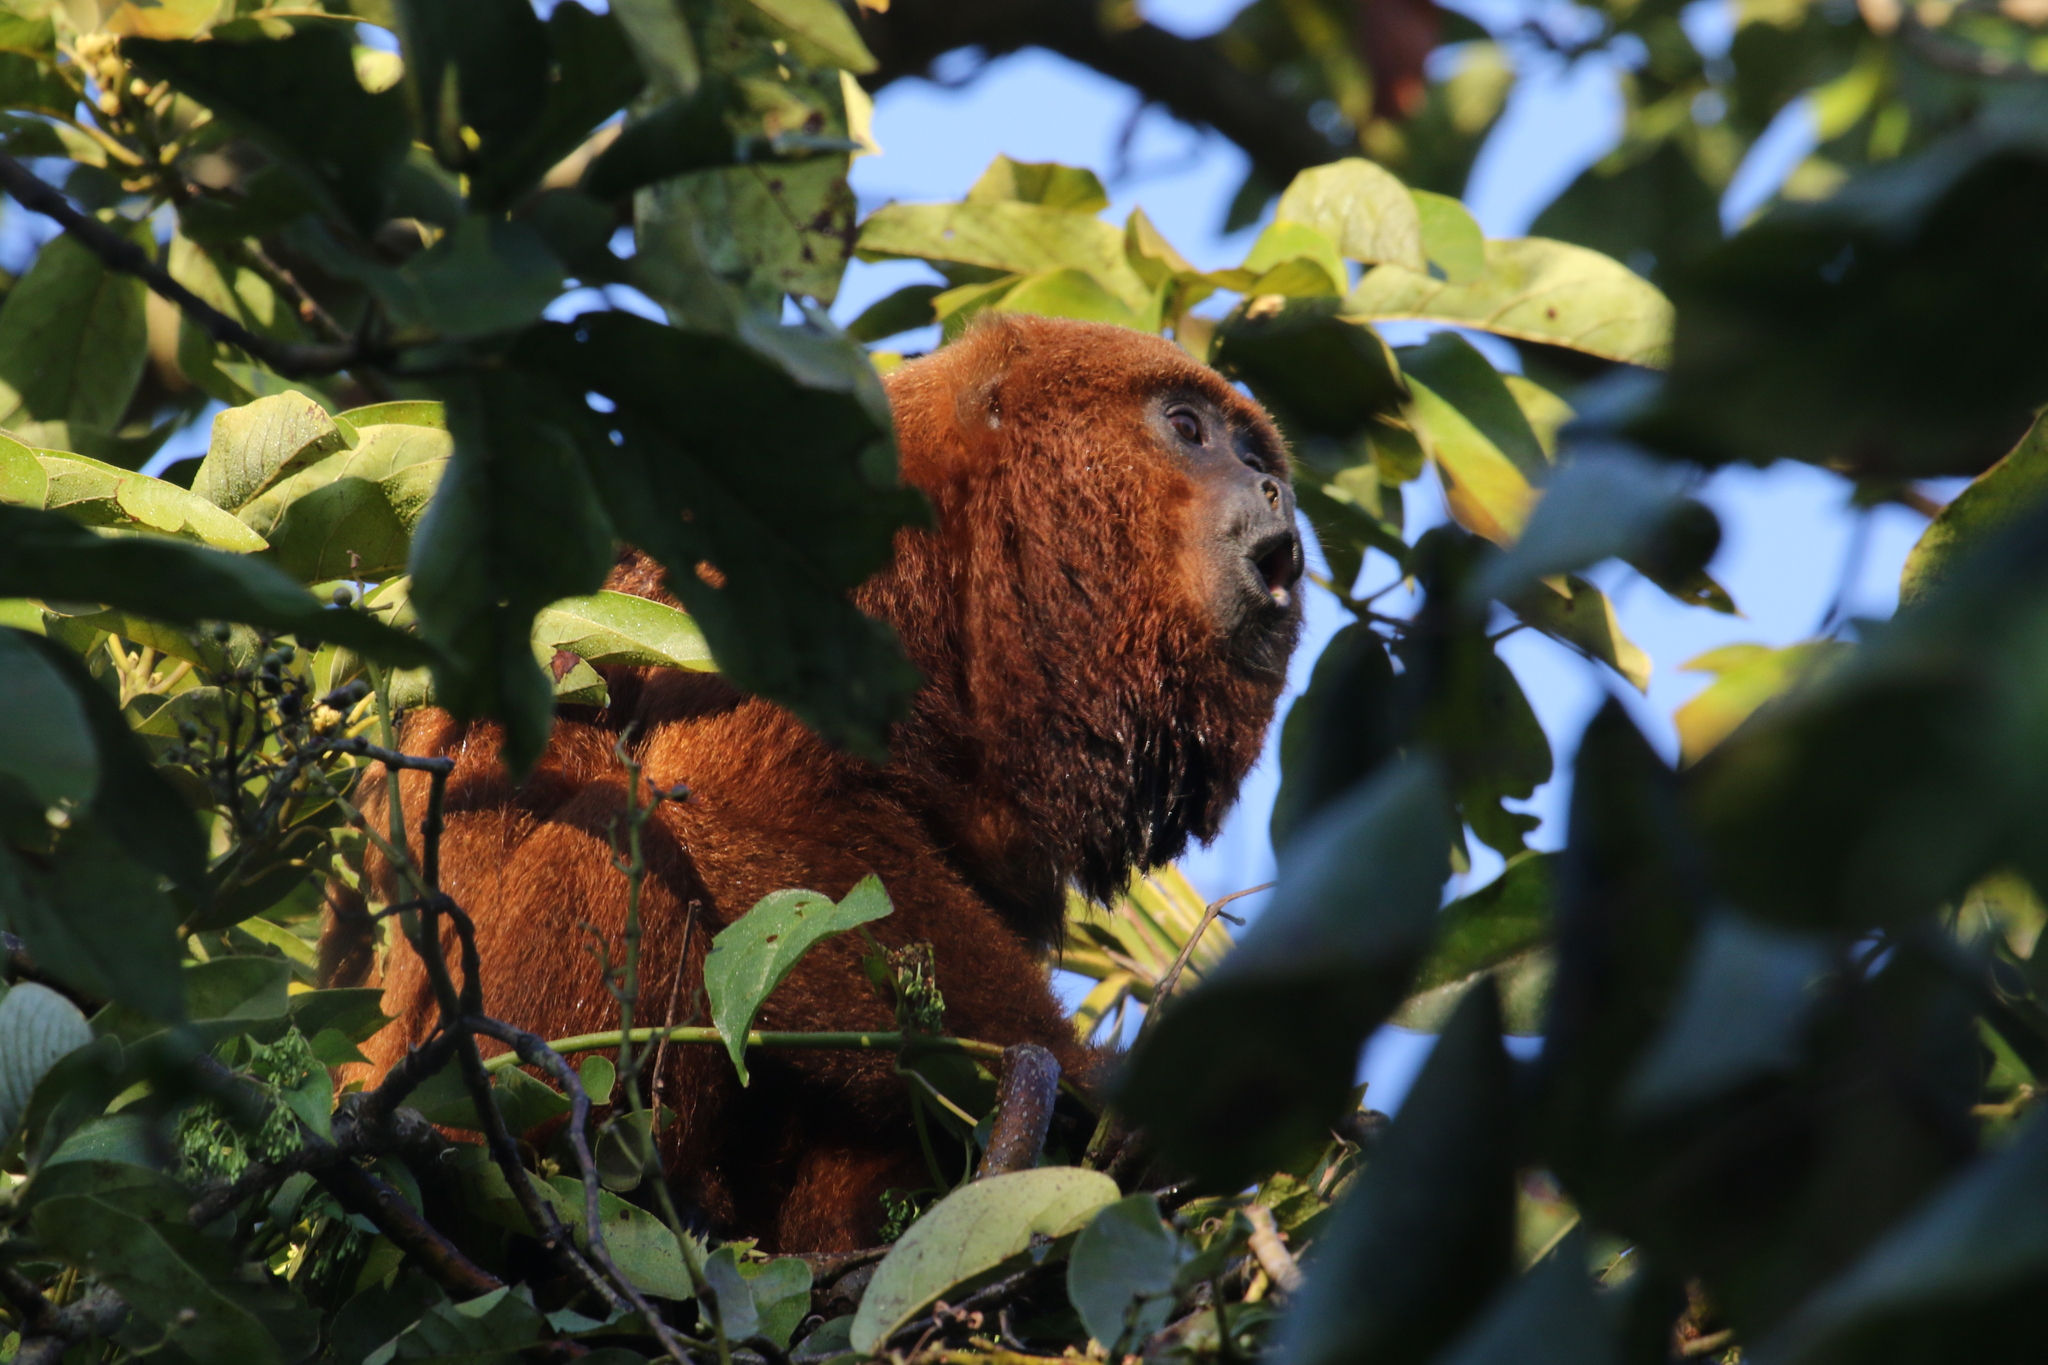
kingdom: Animalia
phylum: Chordata
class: Mammalia
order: Primates
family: Atelidae
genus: Alouatta
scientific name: Alouatta guariba
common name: Brown howler monkey
